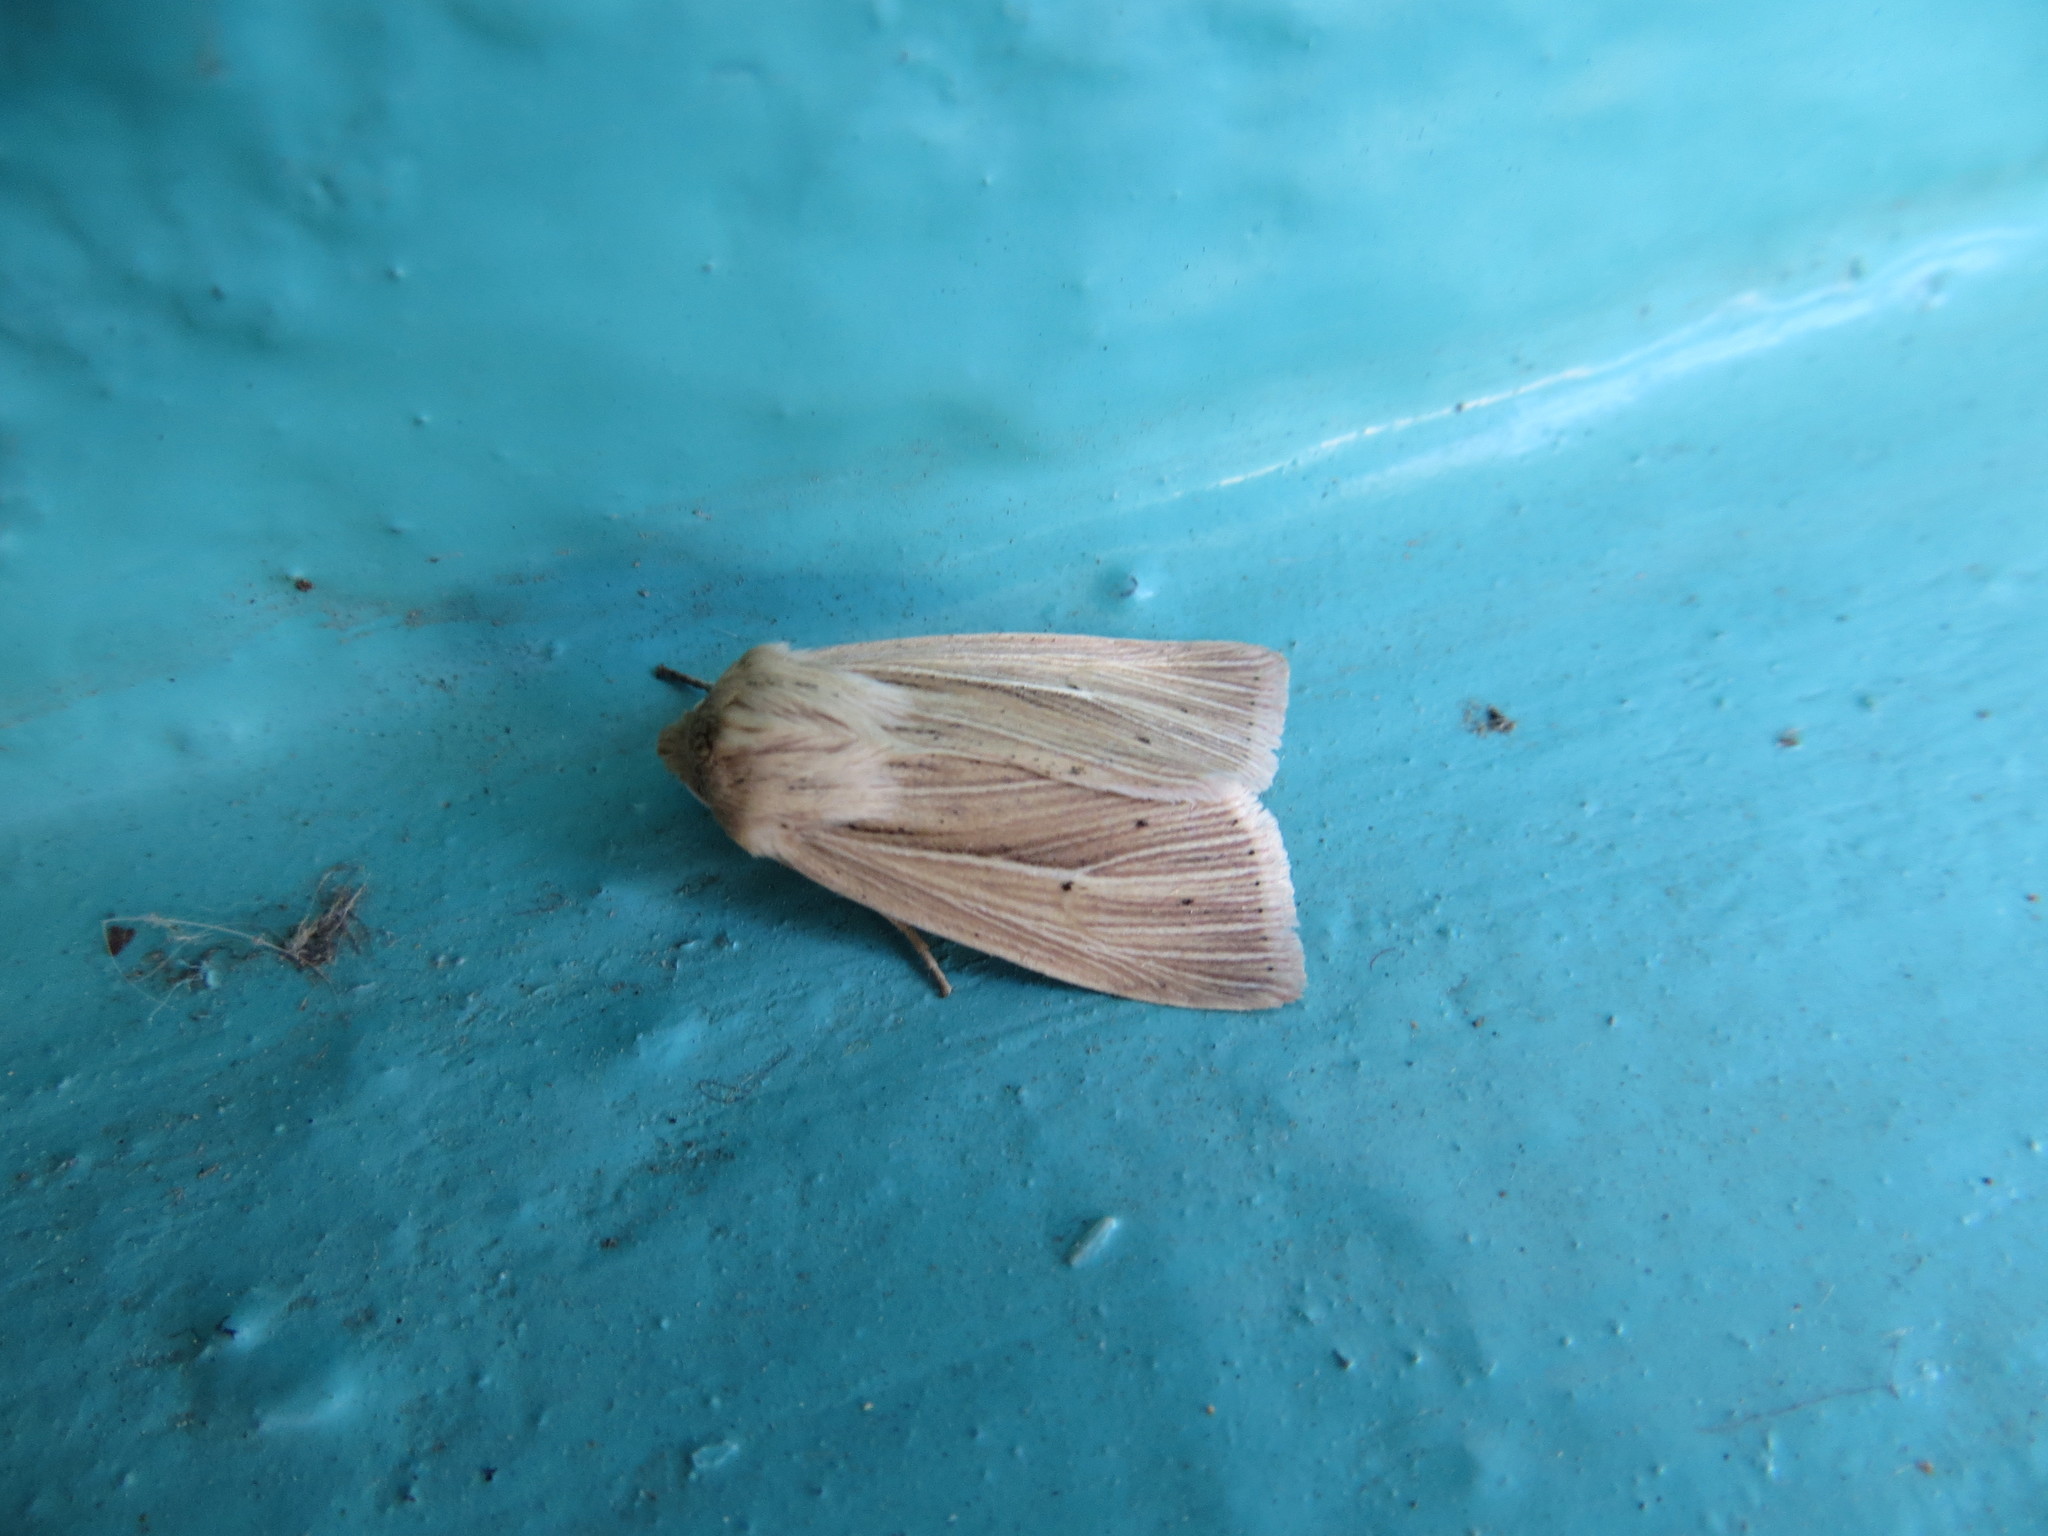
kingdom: Animalia
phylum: Arthropoda
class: Insecta
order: Lepidoptera
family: Noctuidae
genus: Mythimna
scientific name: Mythimna impura
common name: Smoky wainscot
